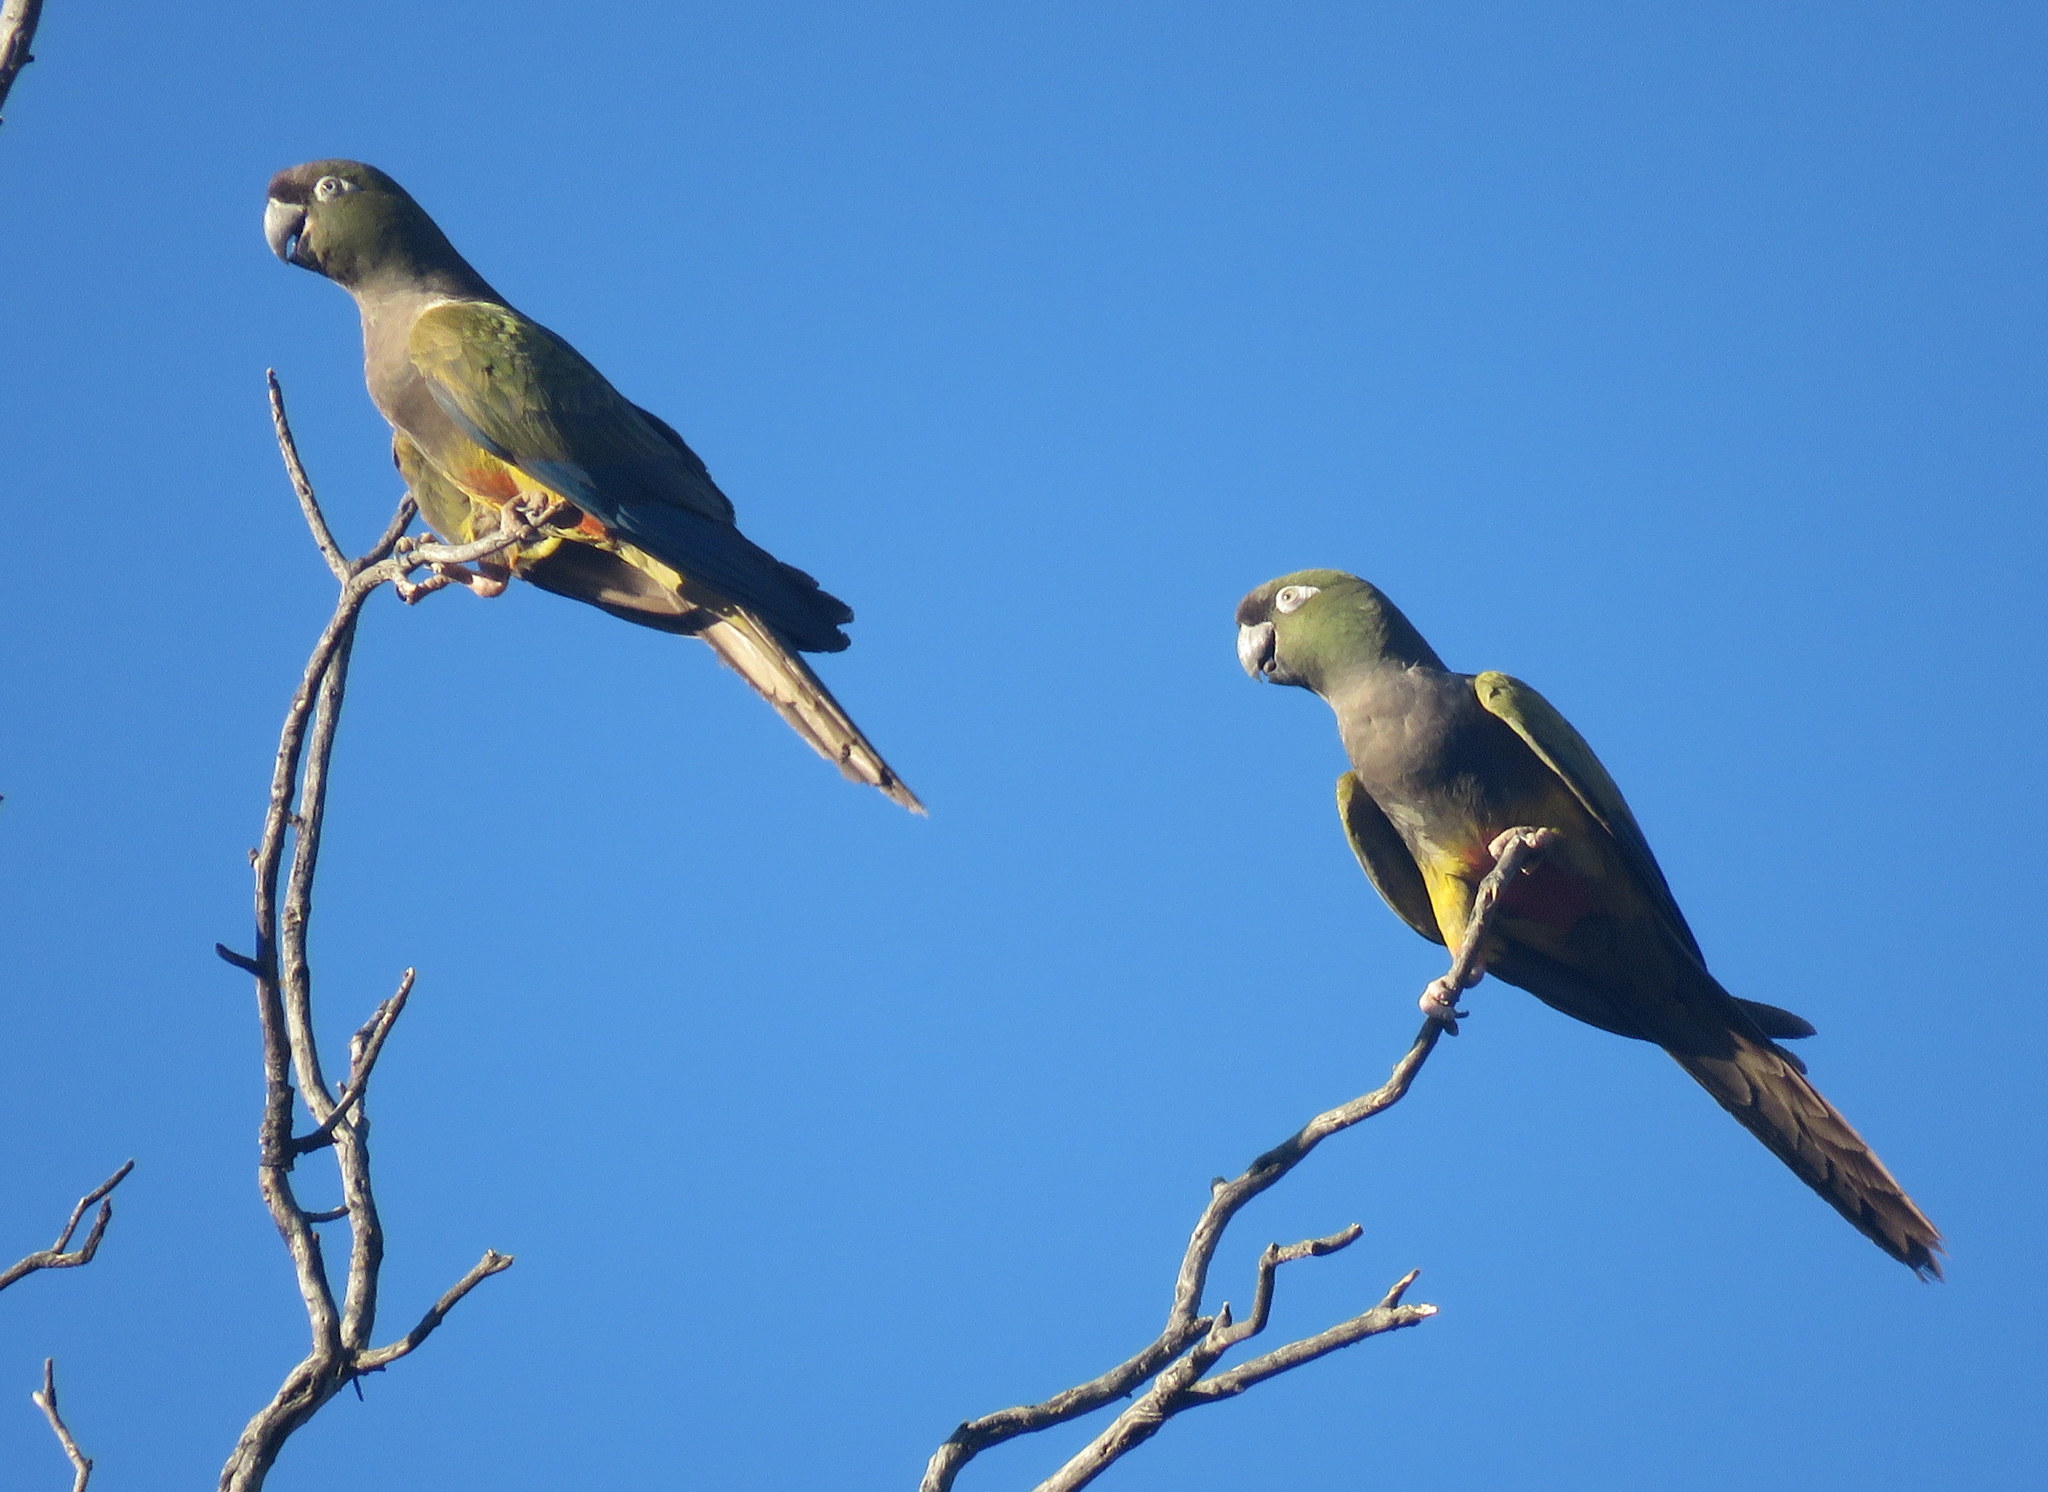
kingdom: Animalia
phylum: Chordata
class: Aves
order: Psittaciformes
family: Psittacidae
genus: Cyanoliseus
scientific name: Cyanoliseus patagonus
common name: Burrowing parrot
